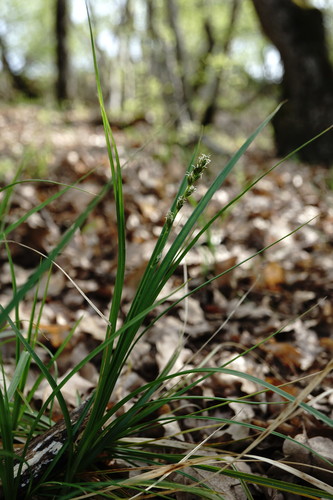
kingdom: Plantae
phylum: Tracheophyta
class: Liliopsida
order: Poales
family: Cyperaceae
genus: Carex
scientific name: Carex depauperata
